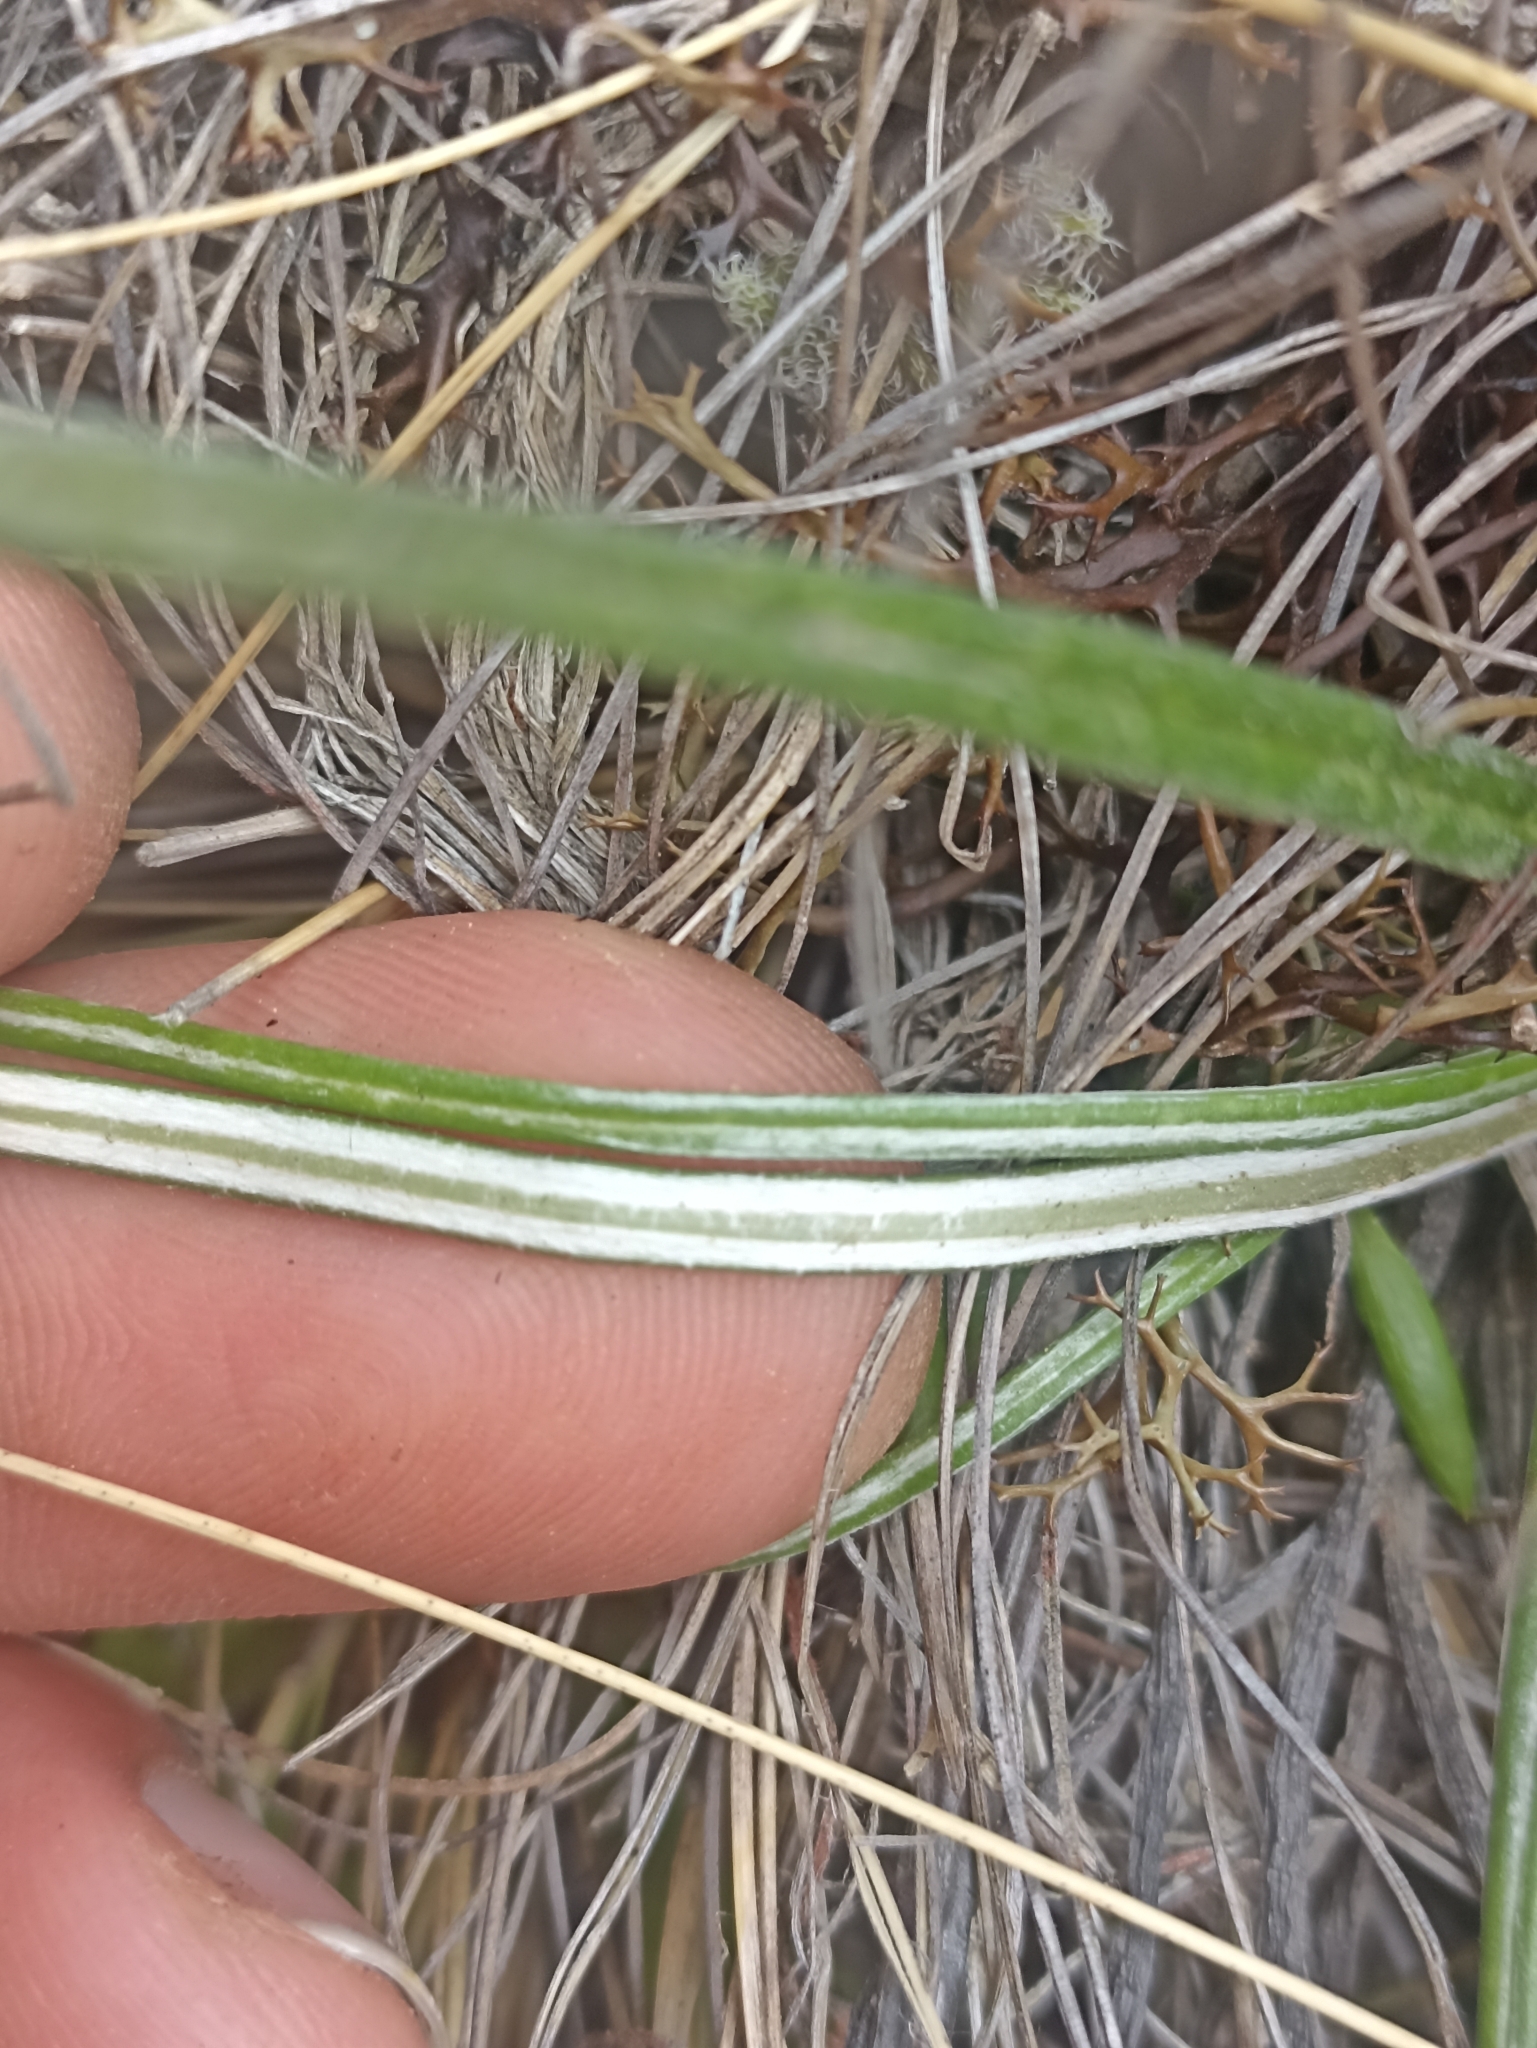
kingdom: Plantae
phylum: Tracheophyta
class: Magnoliopsida
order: Asterales
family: Asteraceae
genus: Celmisia
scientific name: Celmisia gracilenta
